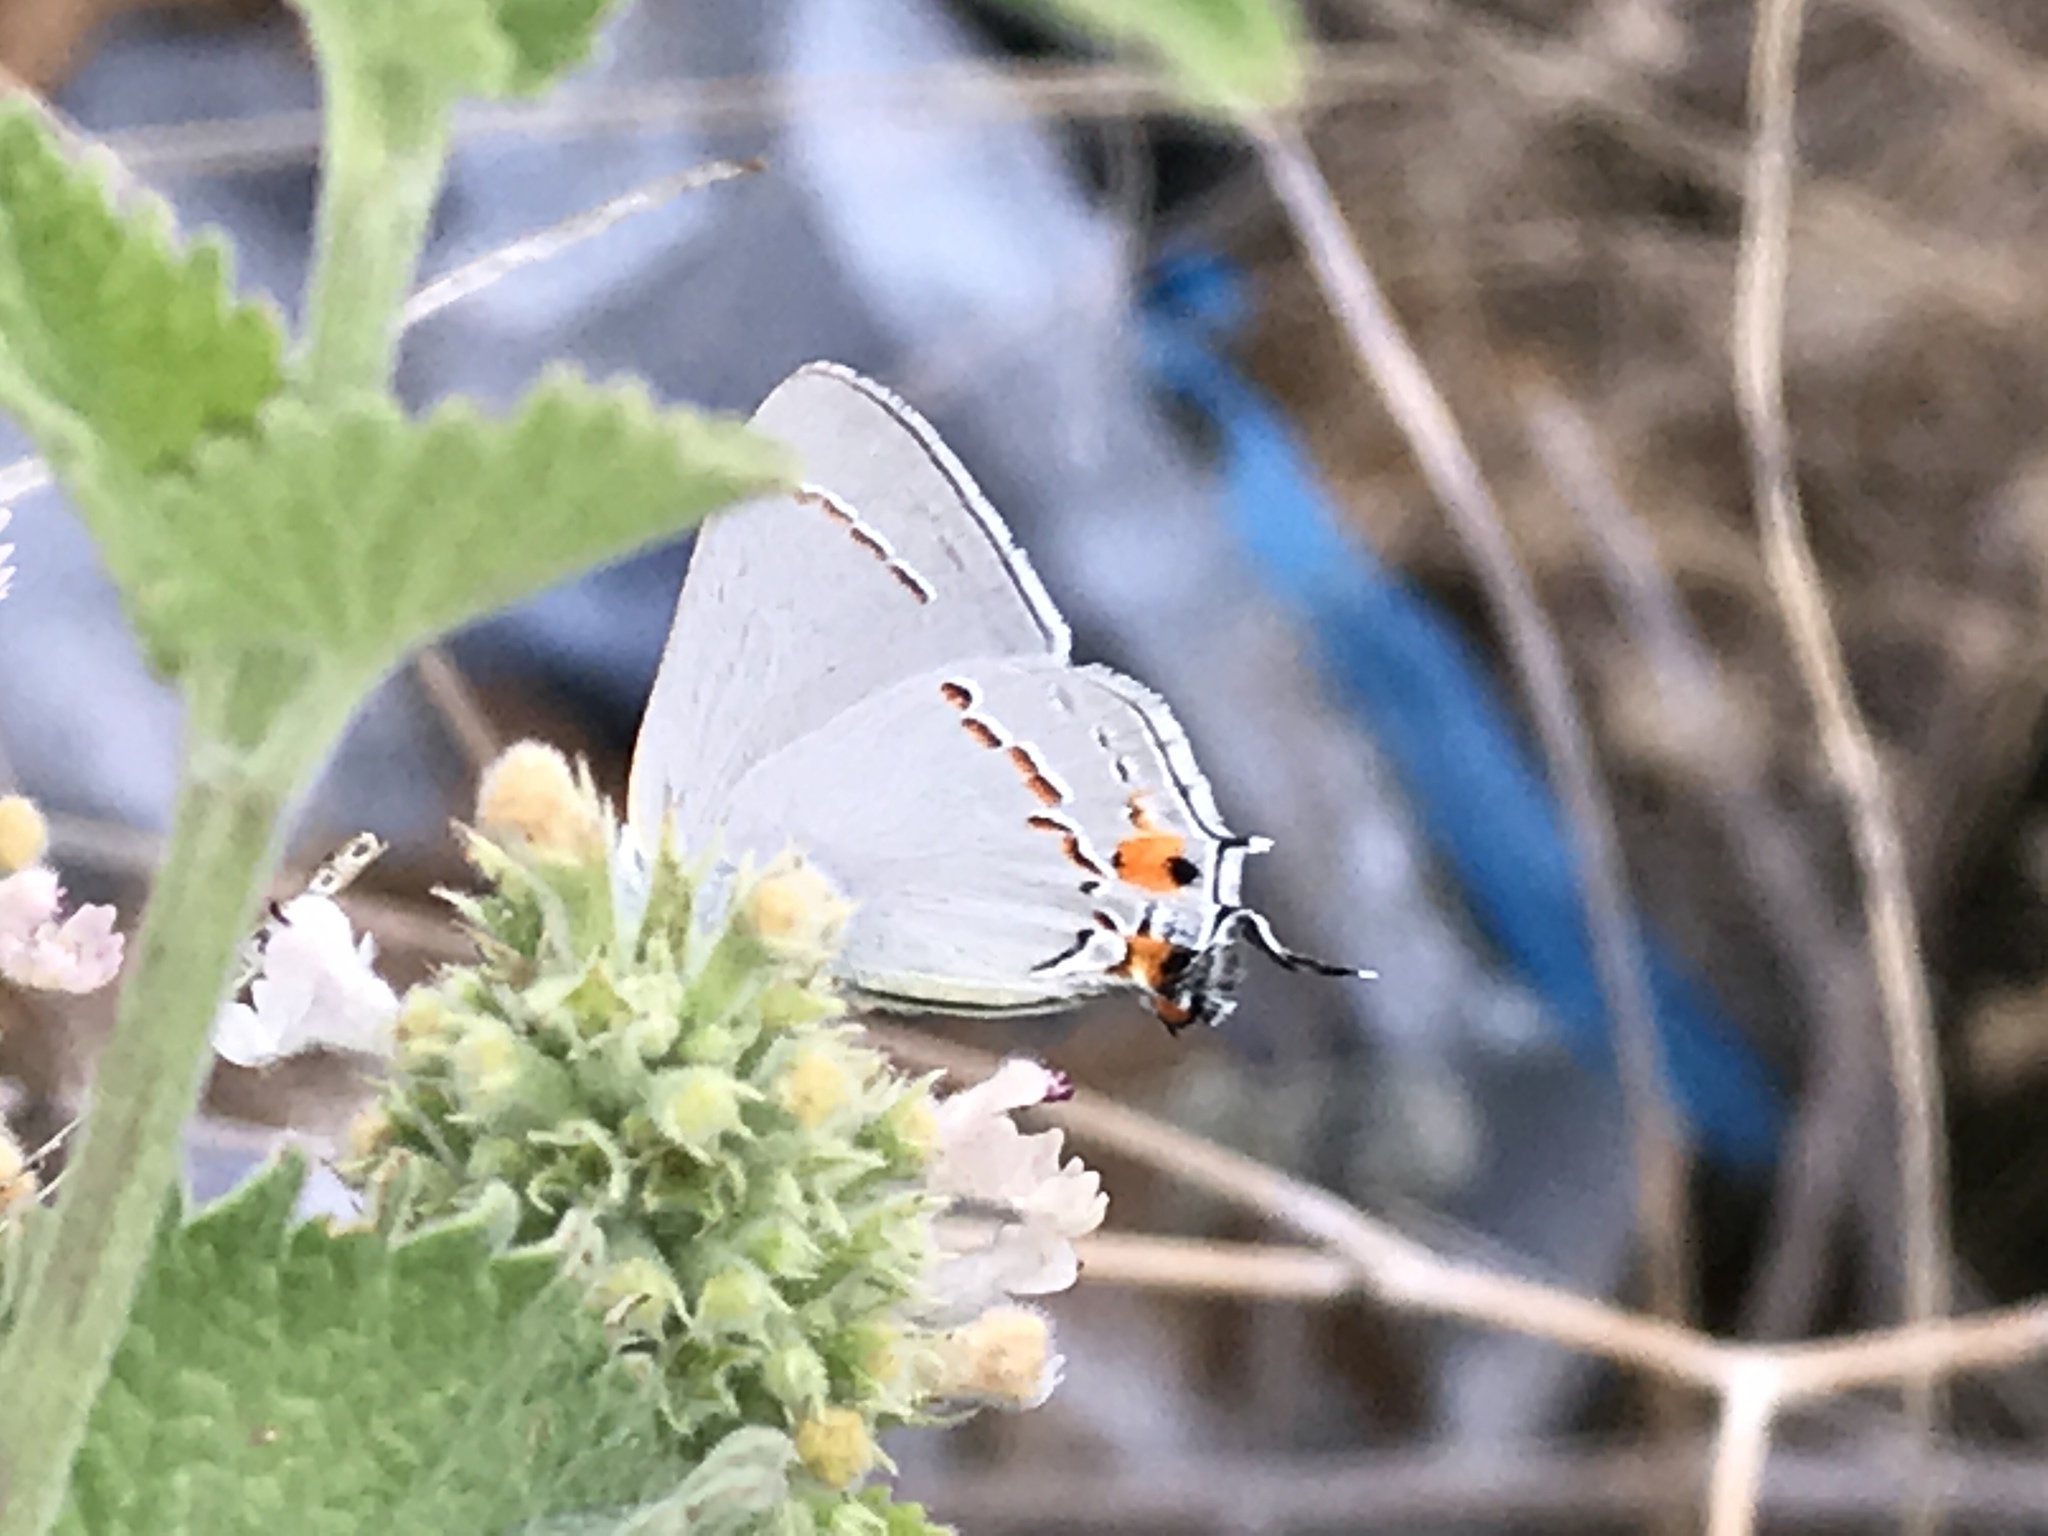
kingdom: Animalia
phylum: Arthropoda
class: Insecta
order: Lepidoptera
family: Lycaenidae
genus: Strymon
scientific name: Strymon melinus
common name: Gray hairstreak
